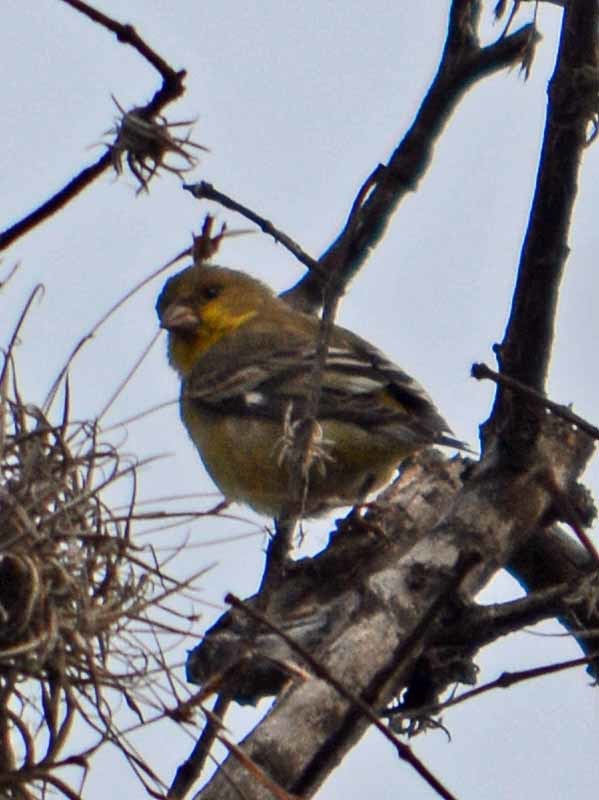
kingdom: Animalia
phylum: Chordata
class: Aves
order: Passeriformes
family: Fringillidae
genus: Spinus
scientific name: Spinus psaltria
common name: Lesser goldfinch
